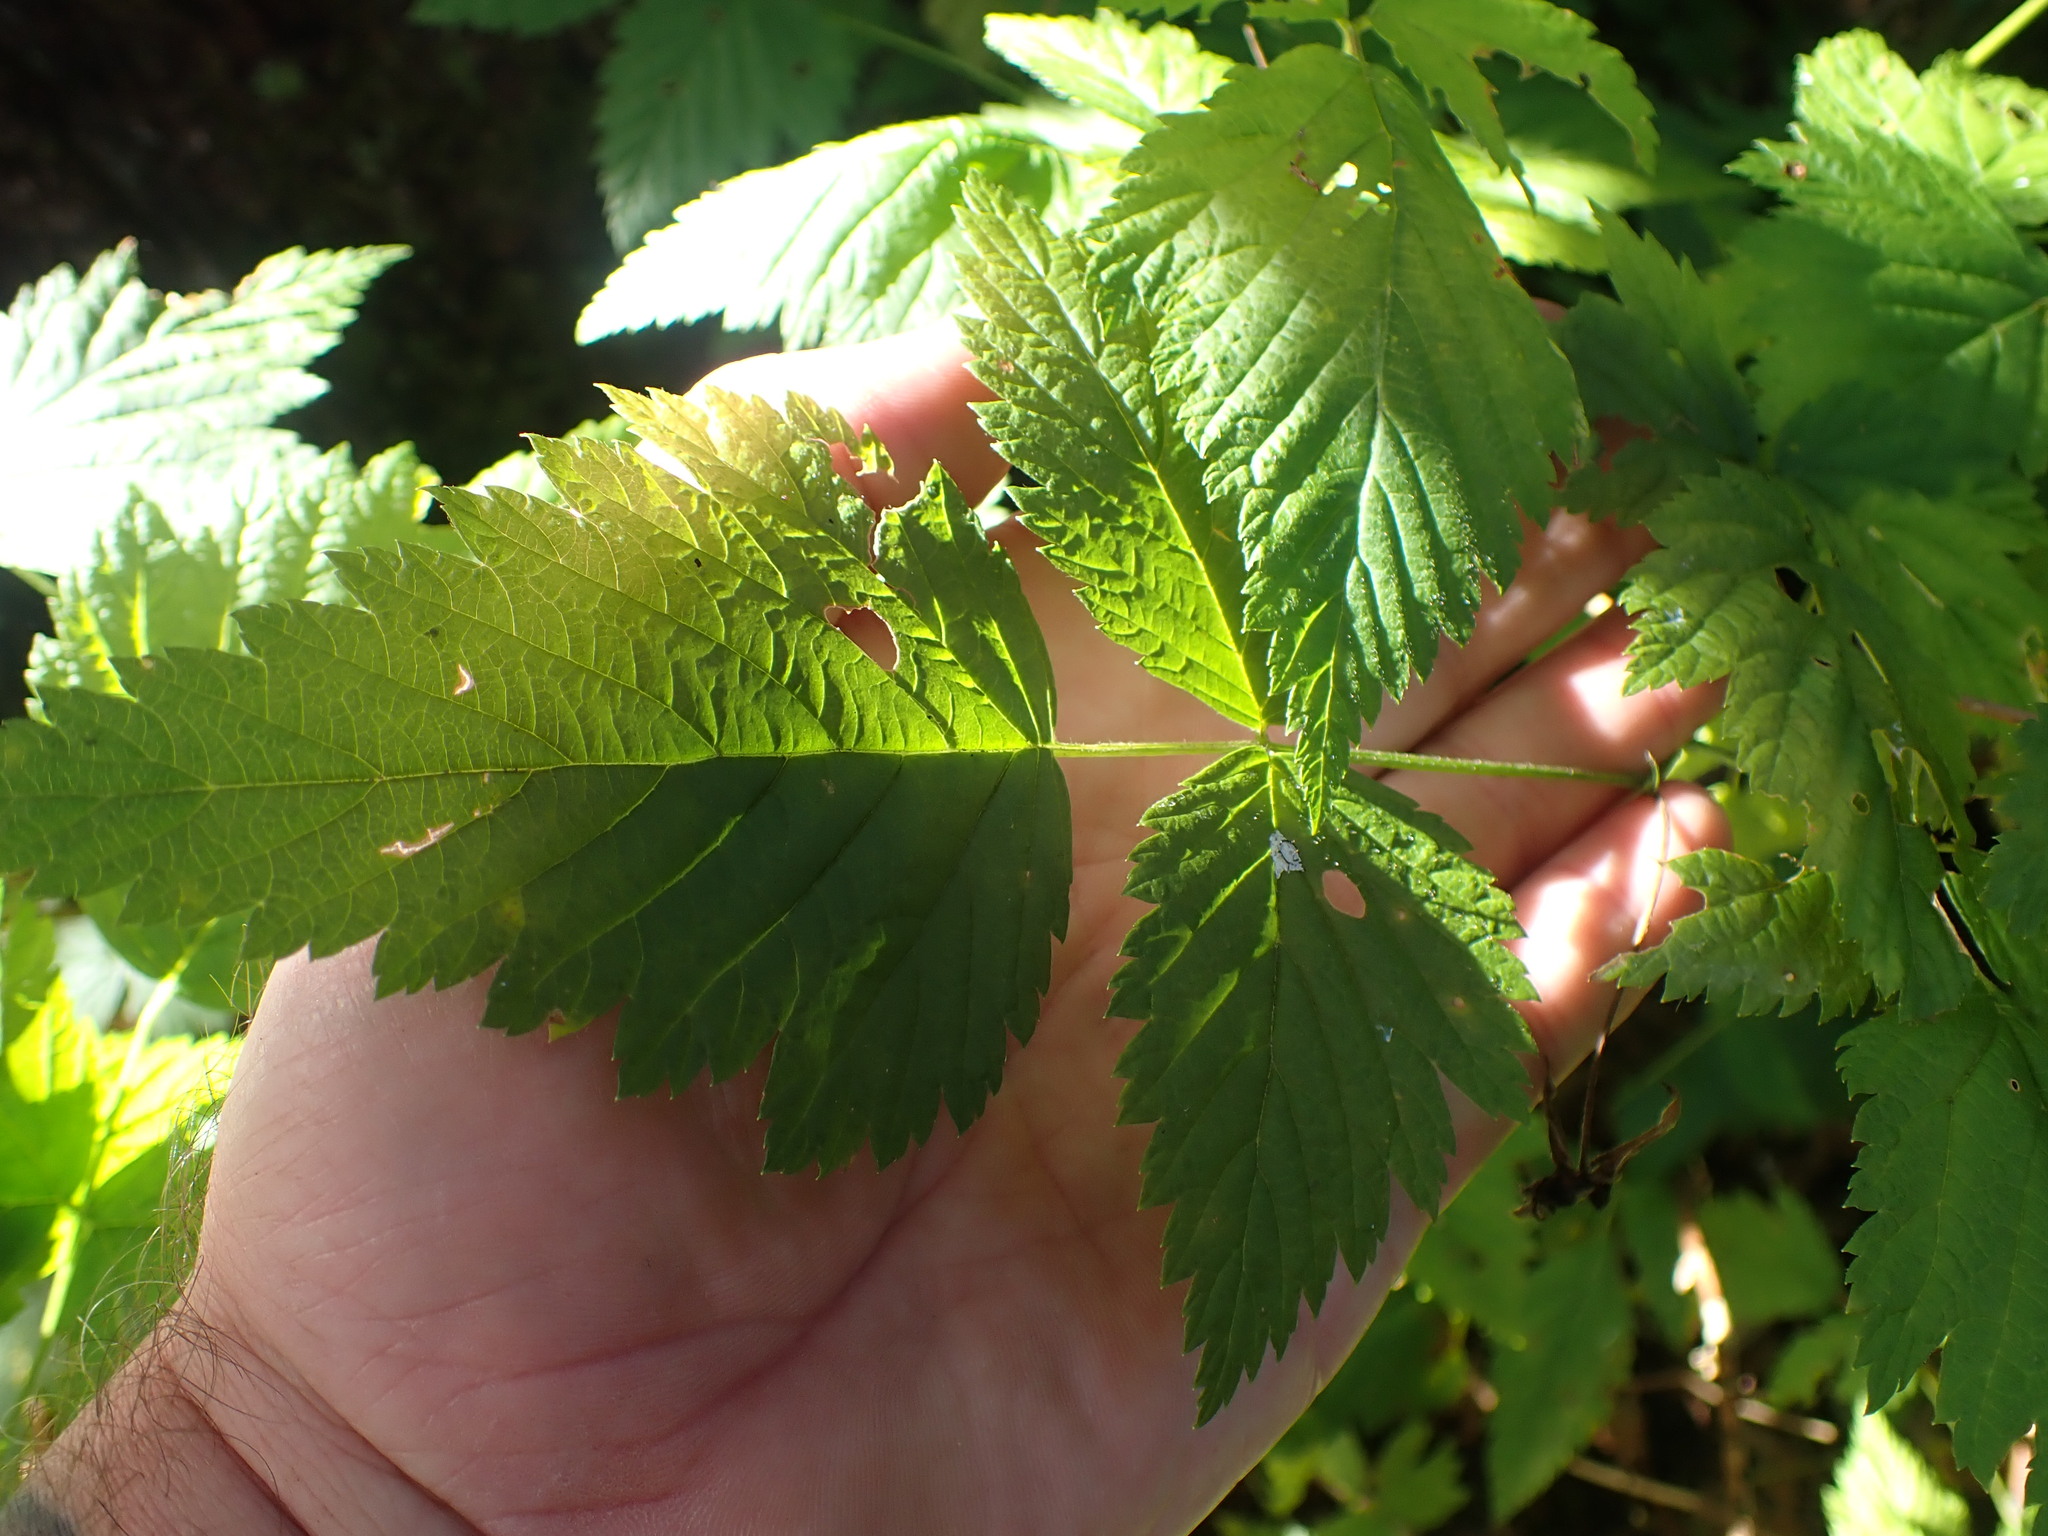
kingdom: Plantae
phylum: Tracheophyta
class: Magnoliopsida
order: Rosales
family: Rosaceae
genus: Rubus
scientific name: Rubus spectabilis
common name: Salmonberry
